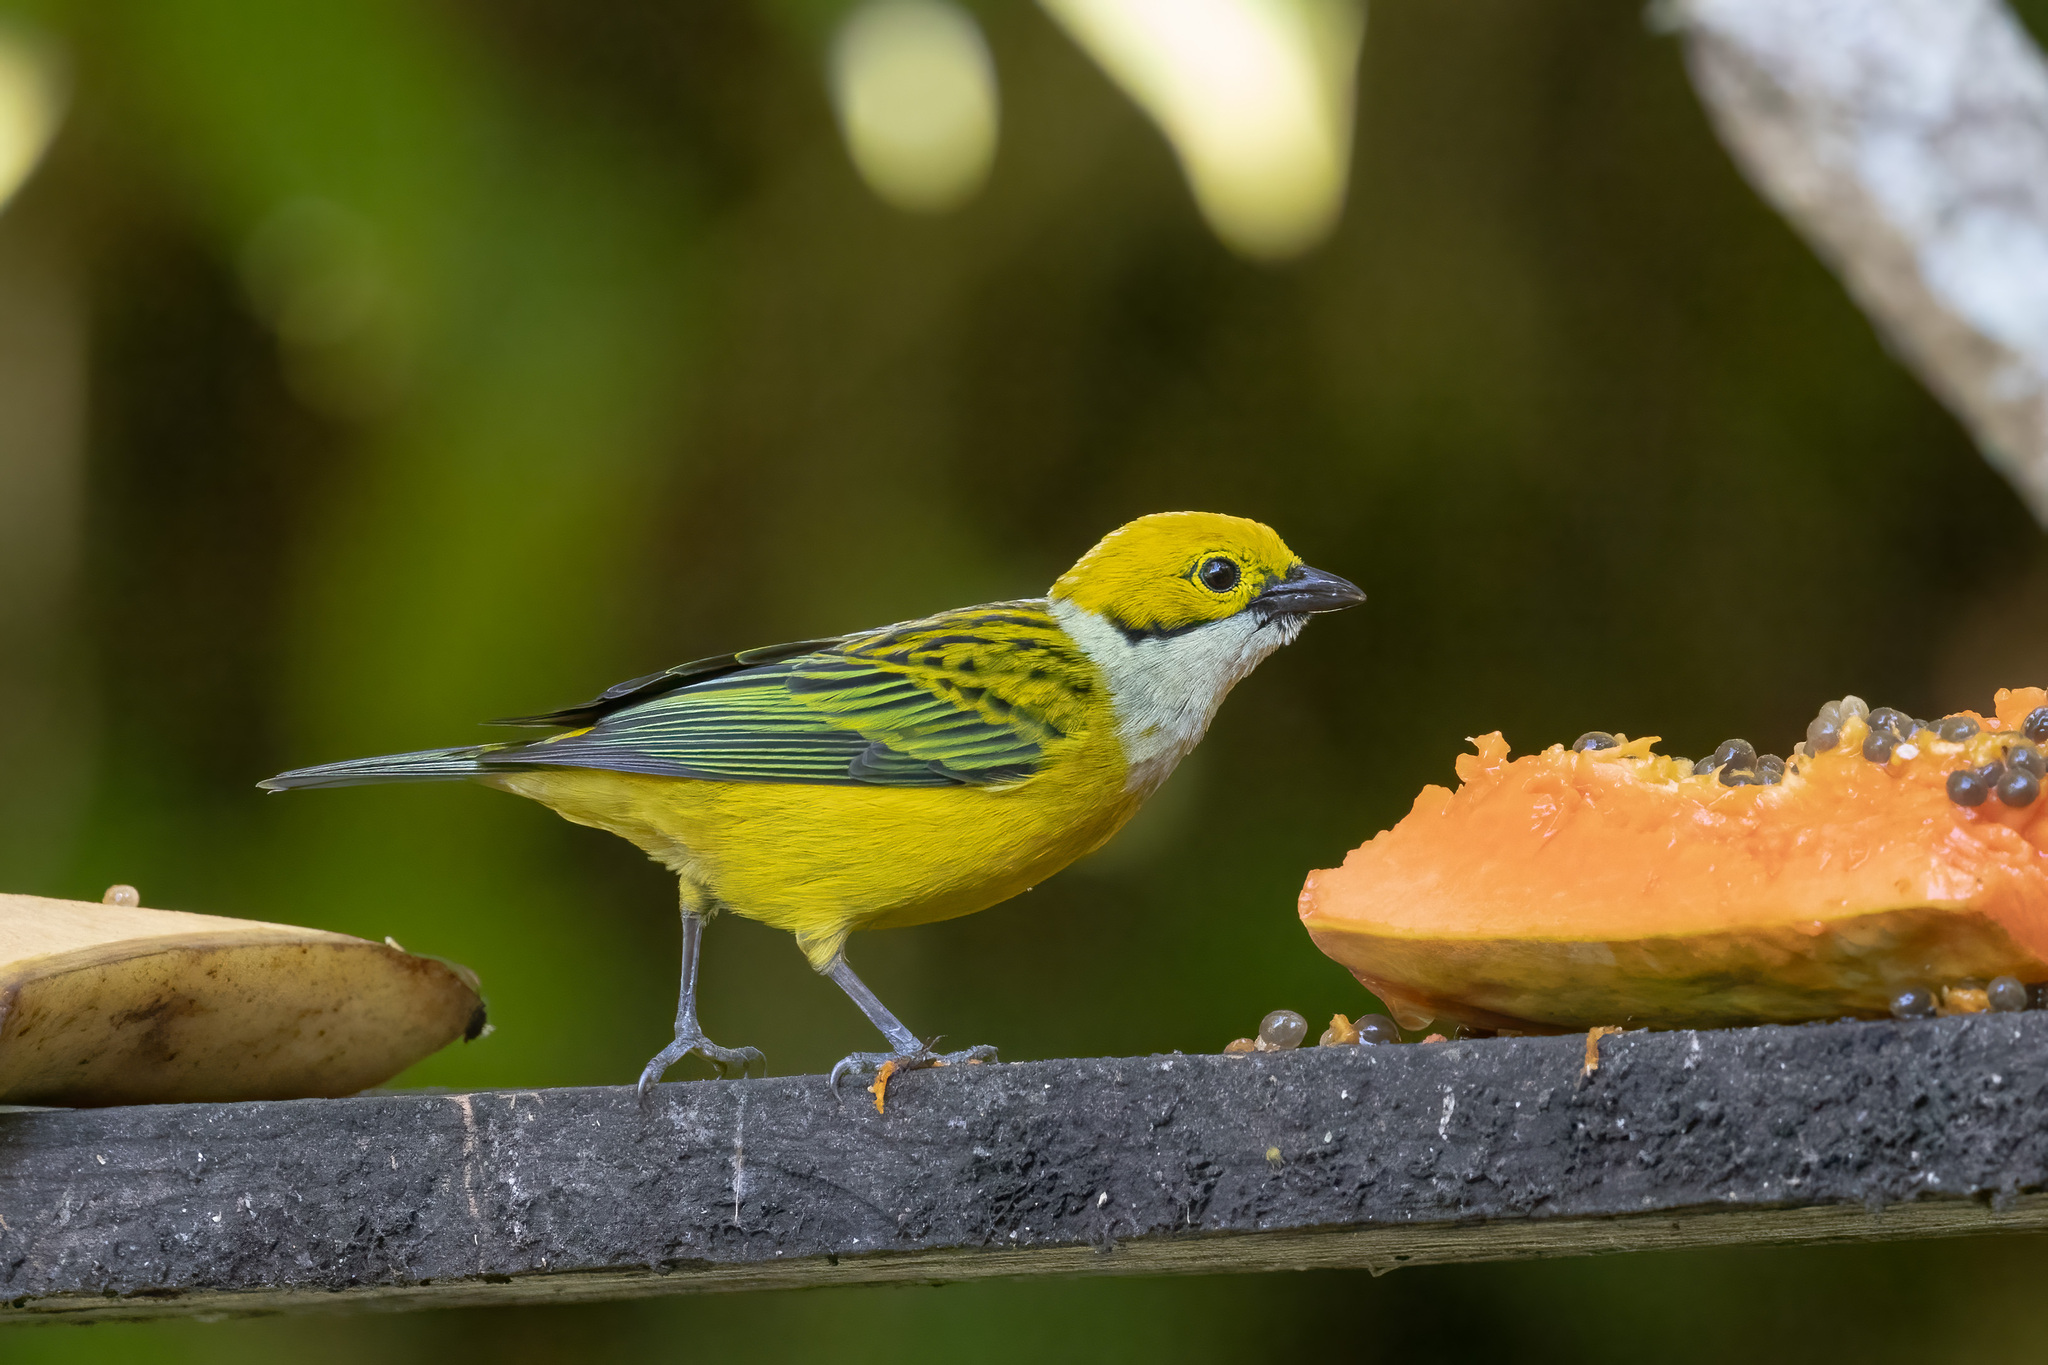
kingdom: Animalia
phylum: Chordata
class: Aves
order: Passeriformes
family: Thraupidae
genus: Tangara
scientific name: Tangara icterocephala
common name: Silver-throated tanager
